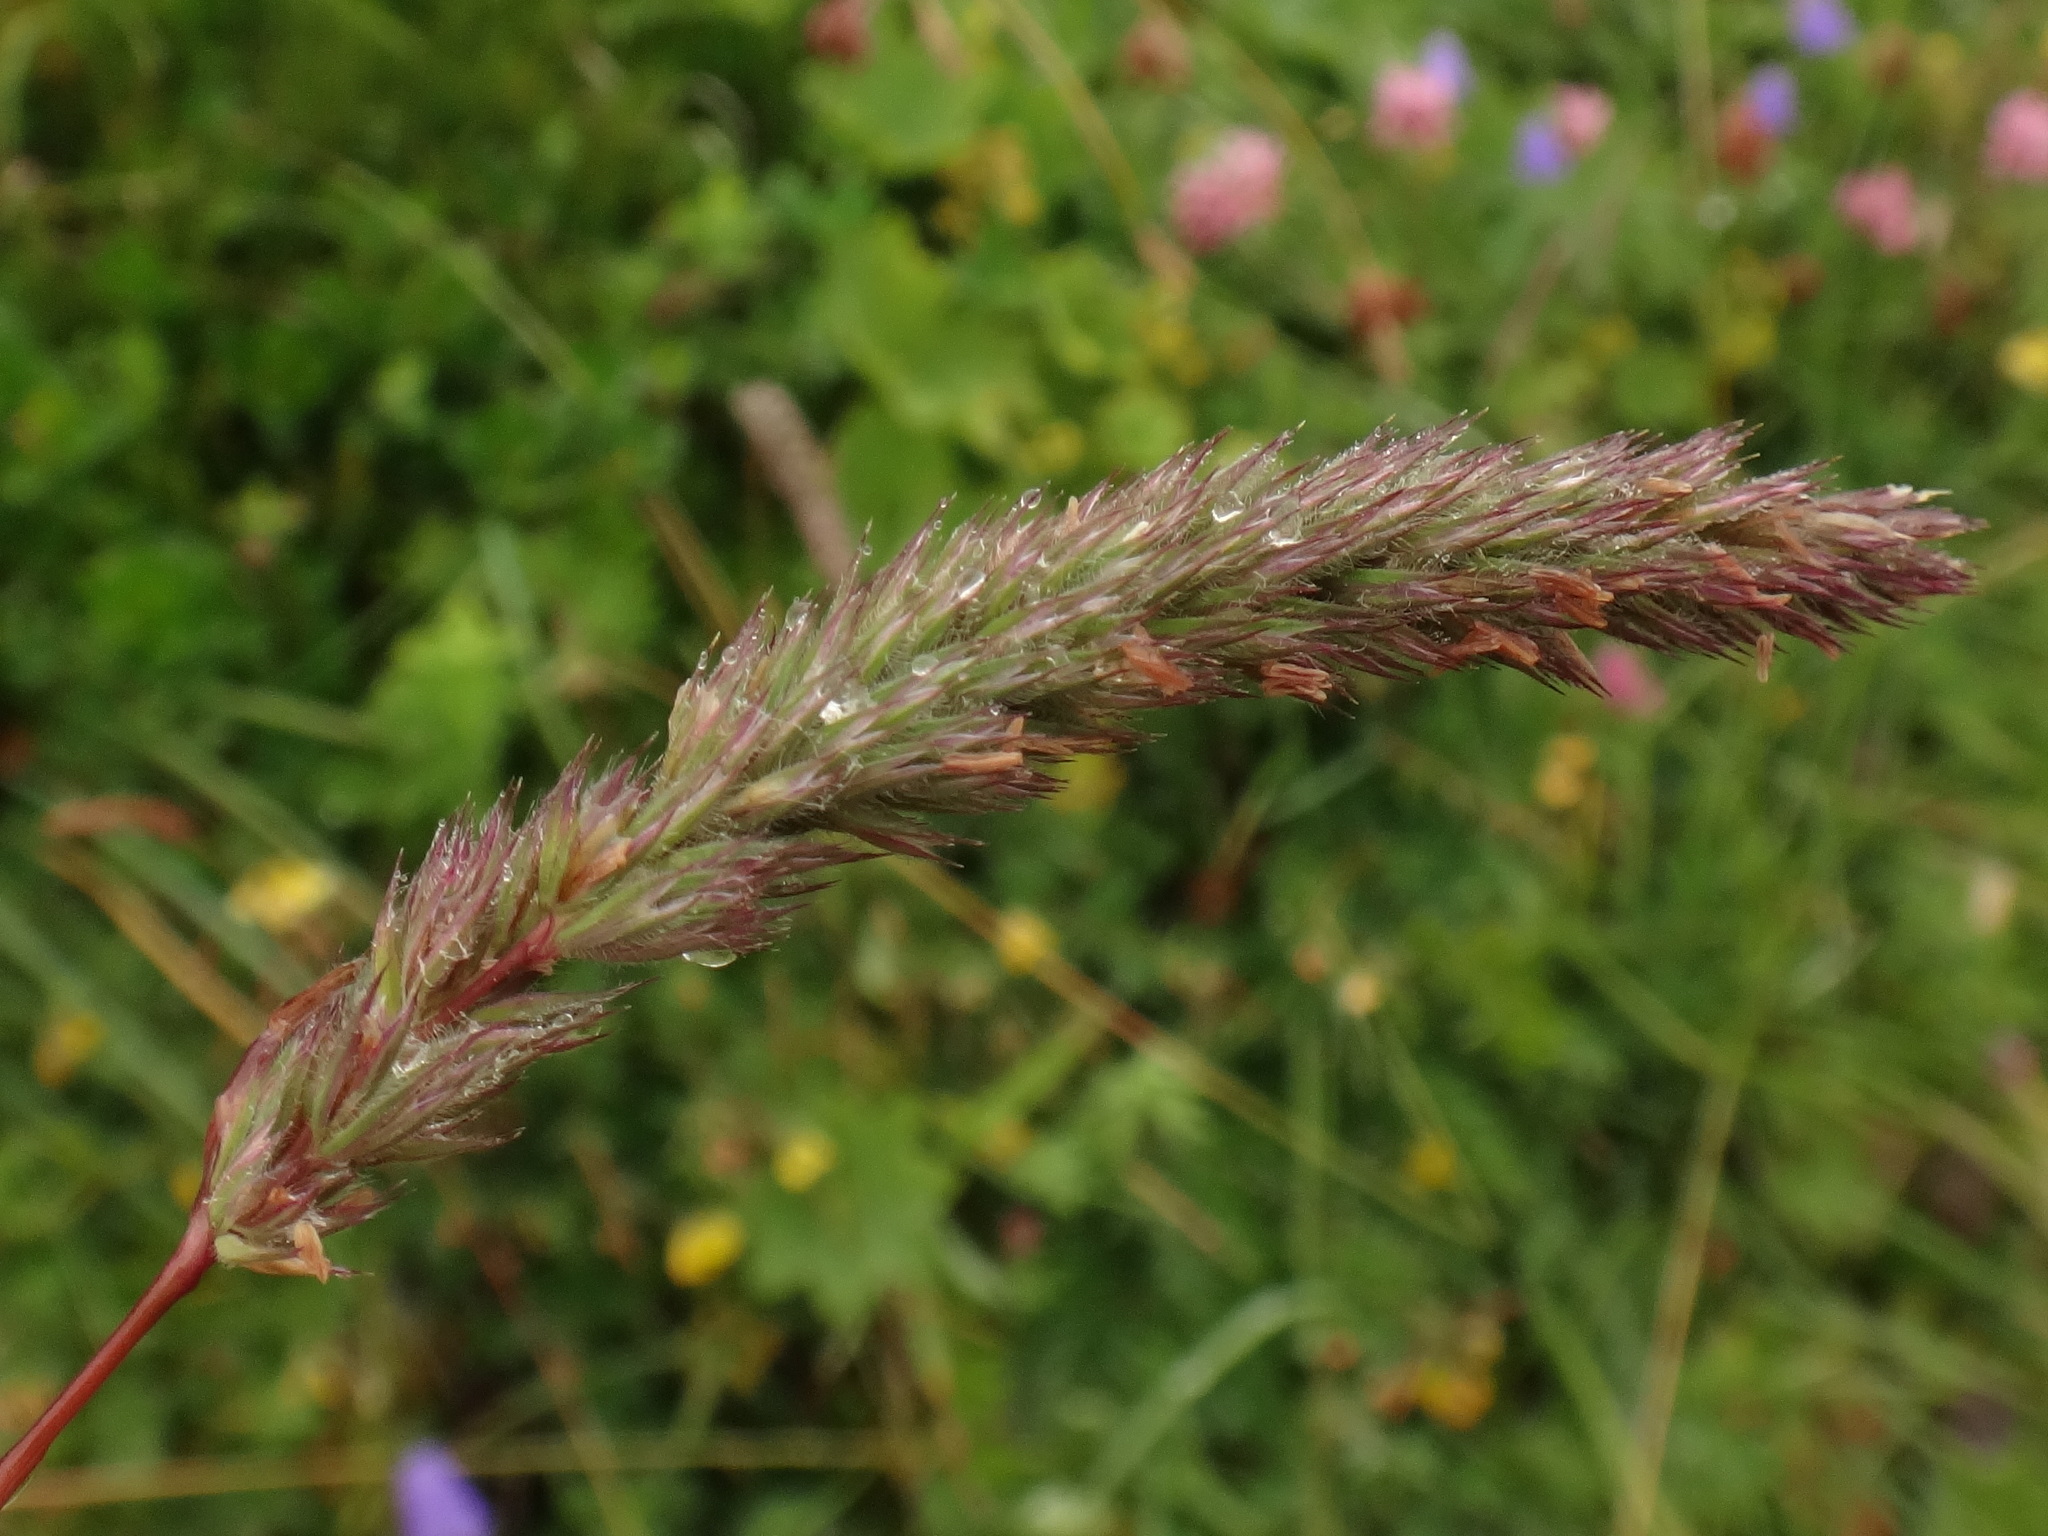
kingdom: Plantae
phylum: Tracheophyta
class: Liliopsida
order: Poales
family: Poaceae
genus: Phleum
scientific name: Phleum hirsutum
